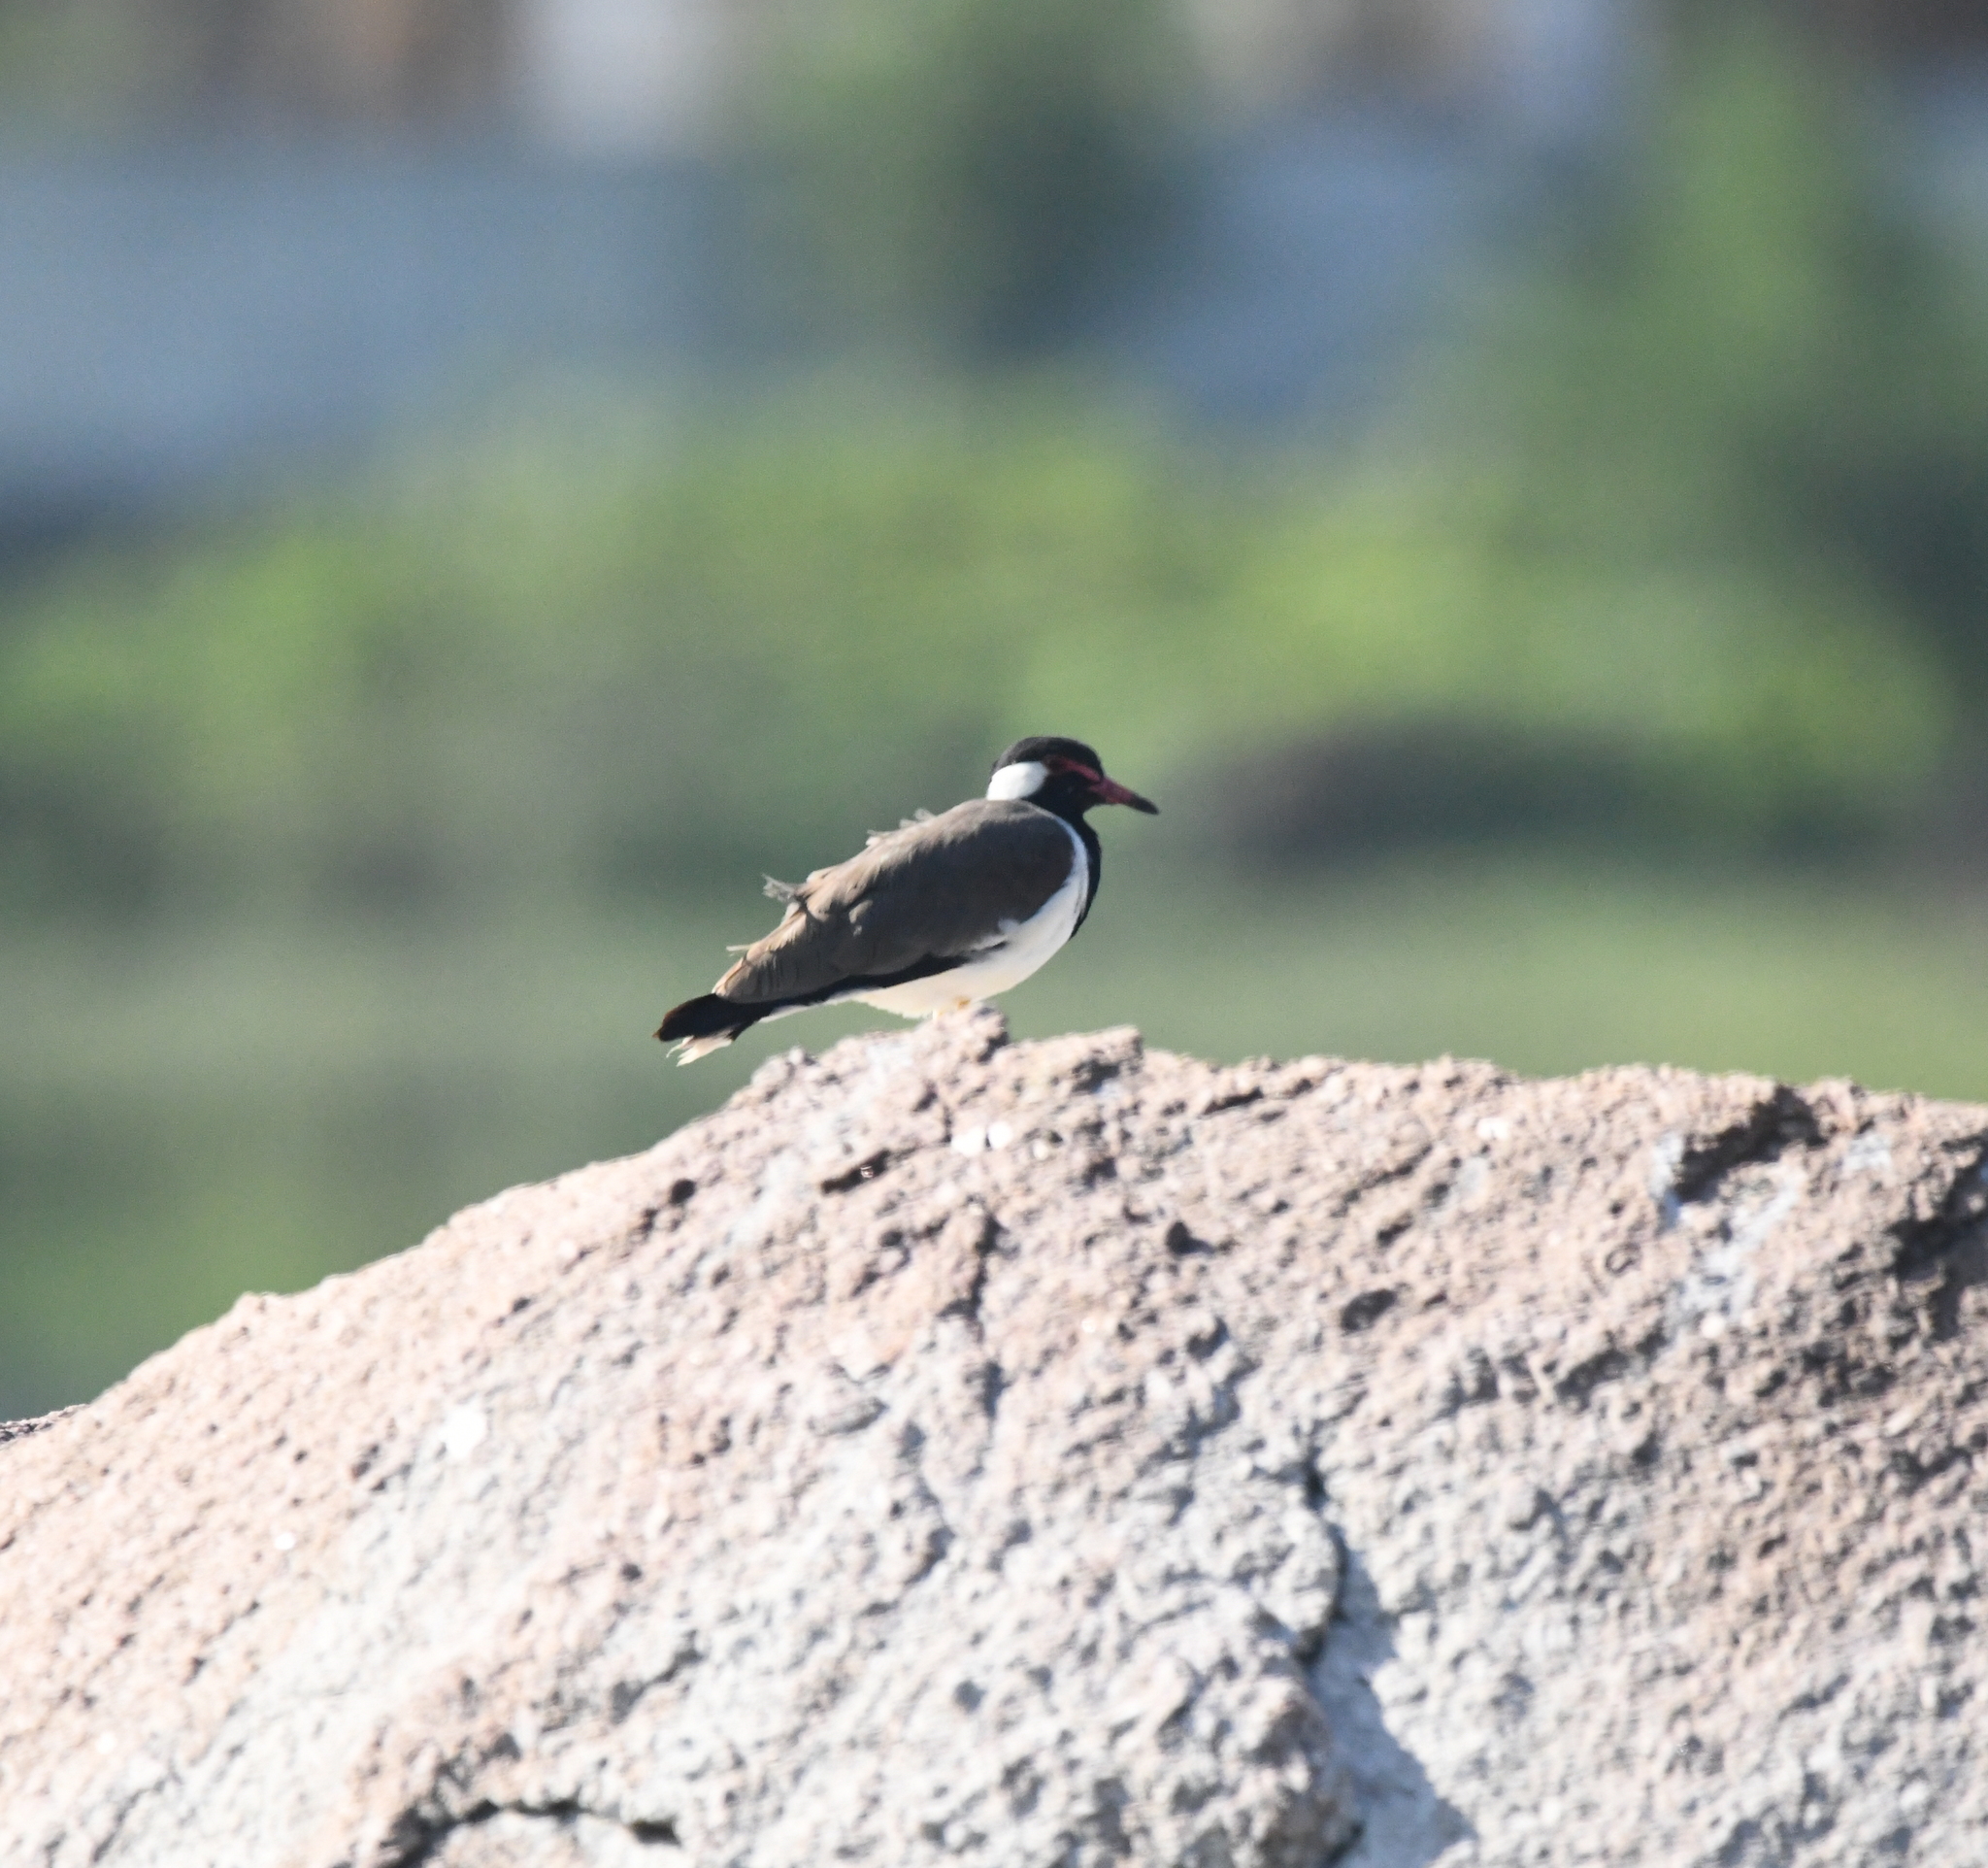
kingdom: Animalia
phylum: Chordata
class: Aves
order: Charadriiformes
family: Charadriidae
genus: Vanellus
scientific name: Vanellus indicus
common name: Red-wattled lapwing
